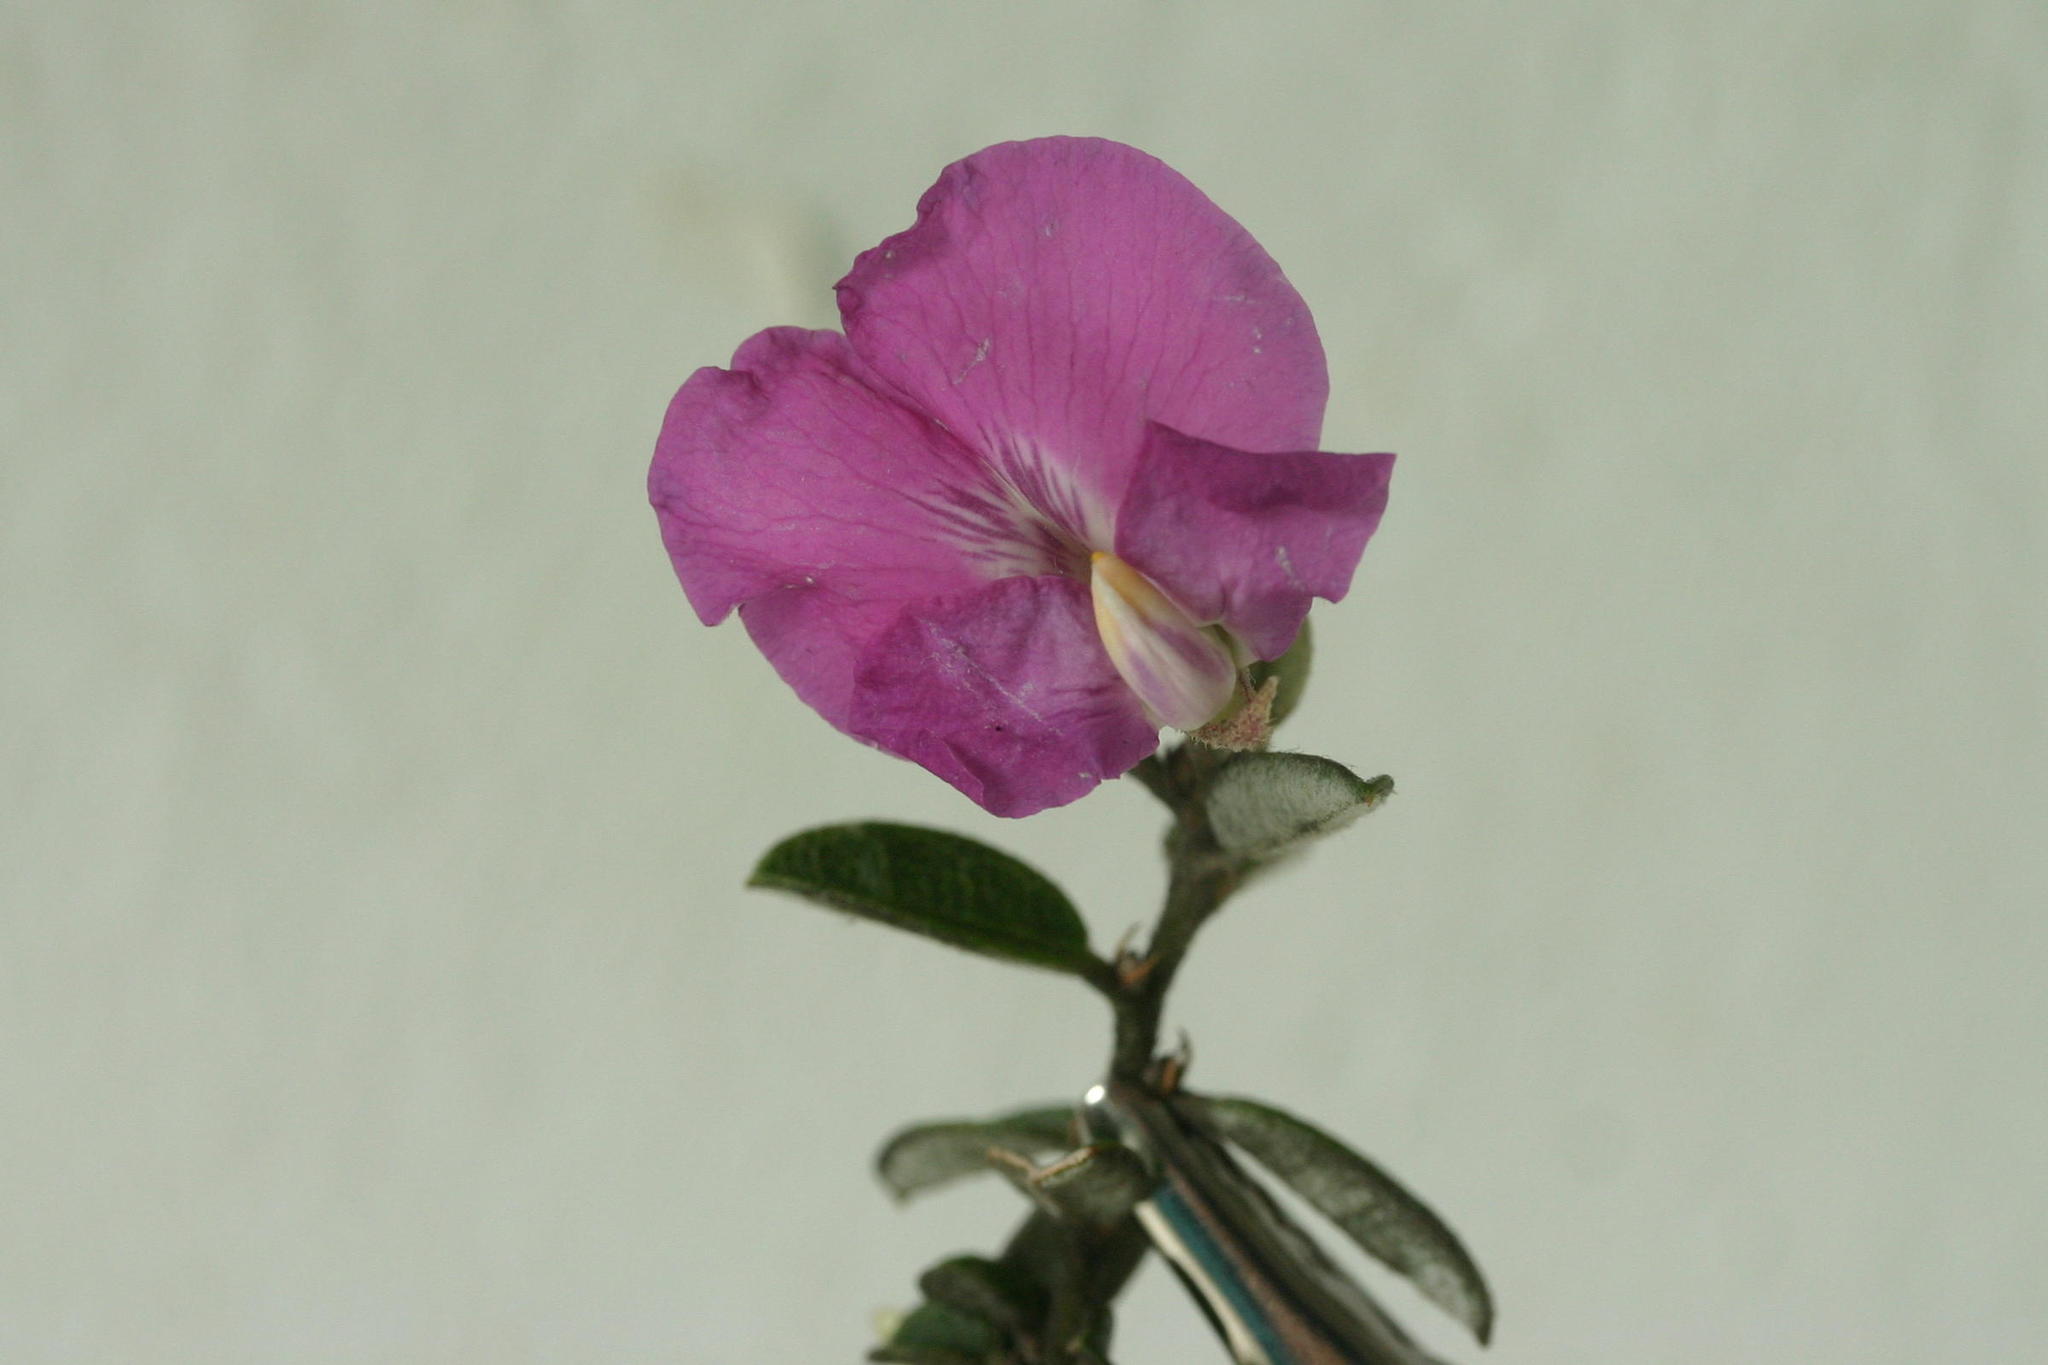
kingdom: Plantae
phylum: Tracheophyta
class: Magnoliopsida
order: Fabales
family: Fabaceae
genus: Podalyria
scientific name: Podalyria burchellii
